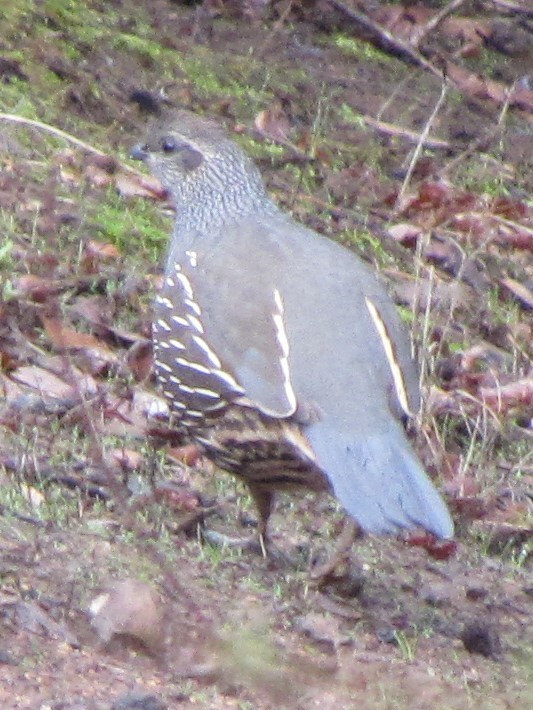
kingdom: Animalia
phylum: Chordata
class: Aves
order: Galliformes
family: Odontophoridae
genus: Callipepla
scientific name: Callipepla californica
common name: California quail
